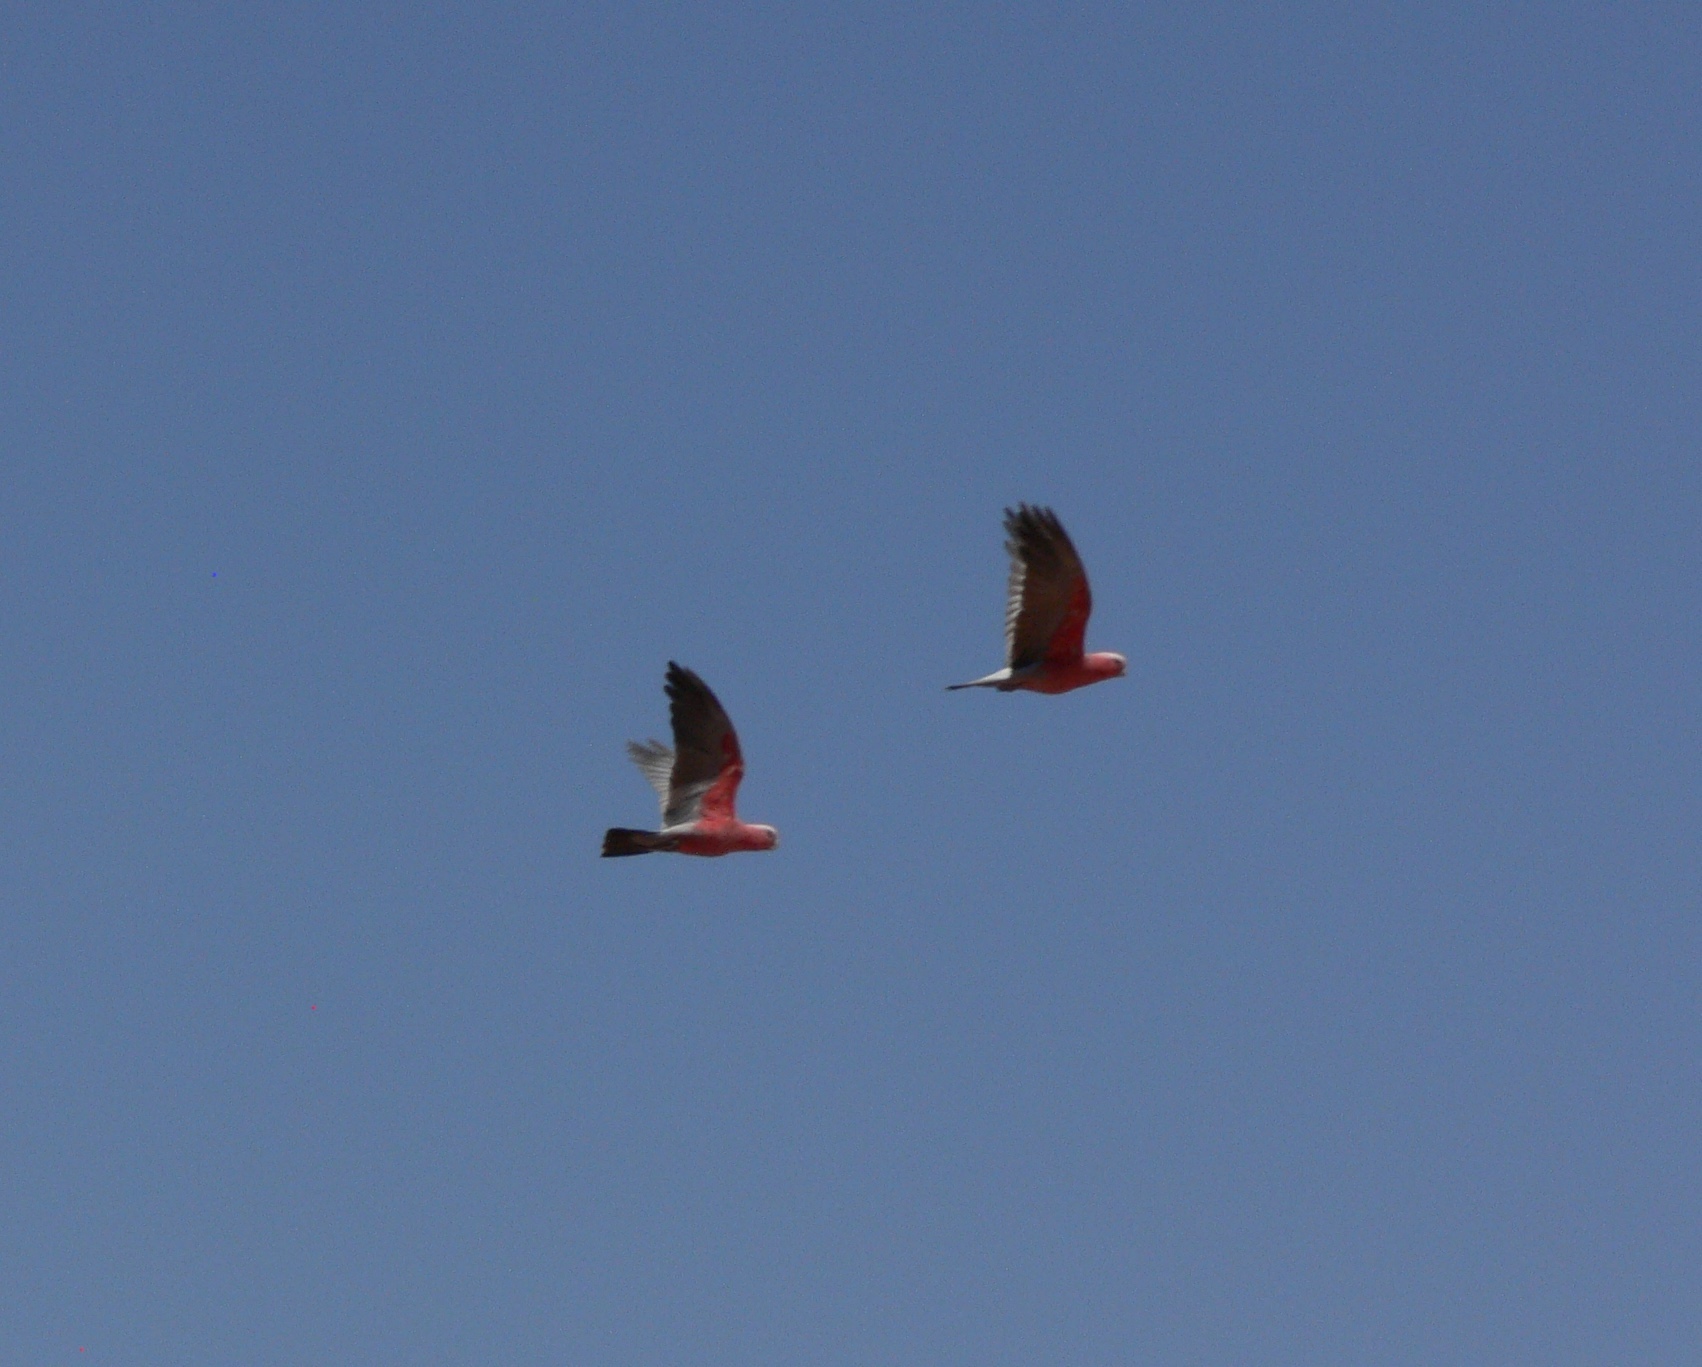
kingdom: Animalia
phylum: Chordata
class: Aves
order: Psittaciformes
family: Psittacidae
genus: Eolophus
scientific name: Eolophus roseicapilla
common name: Galah
